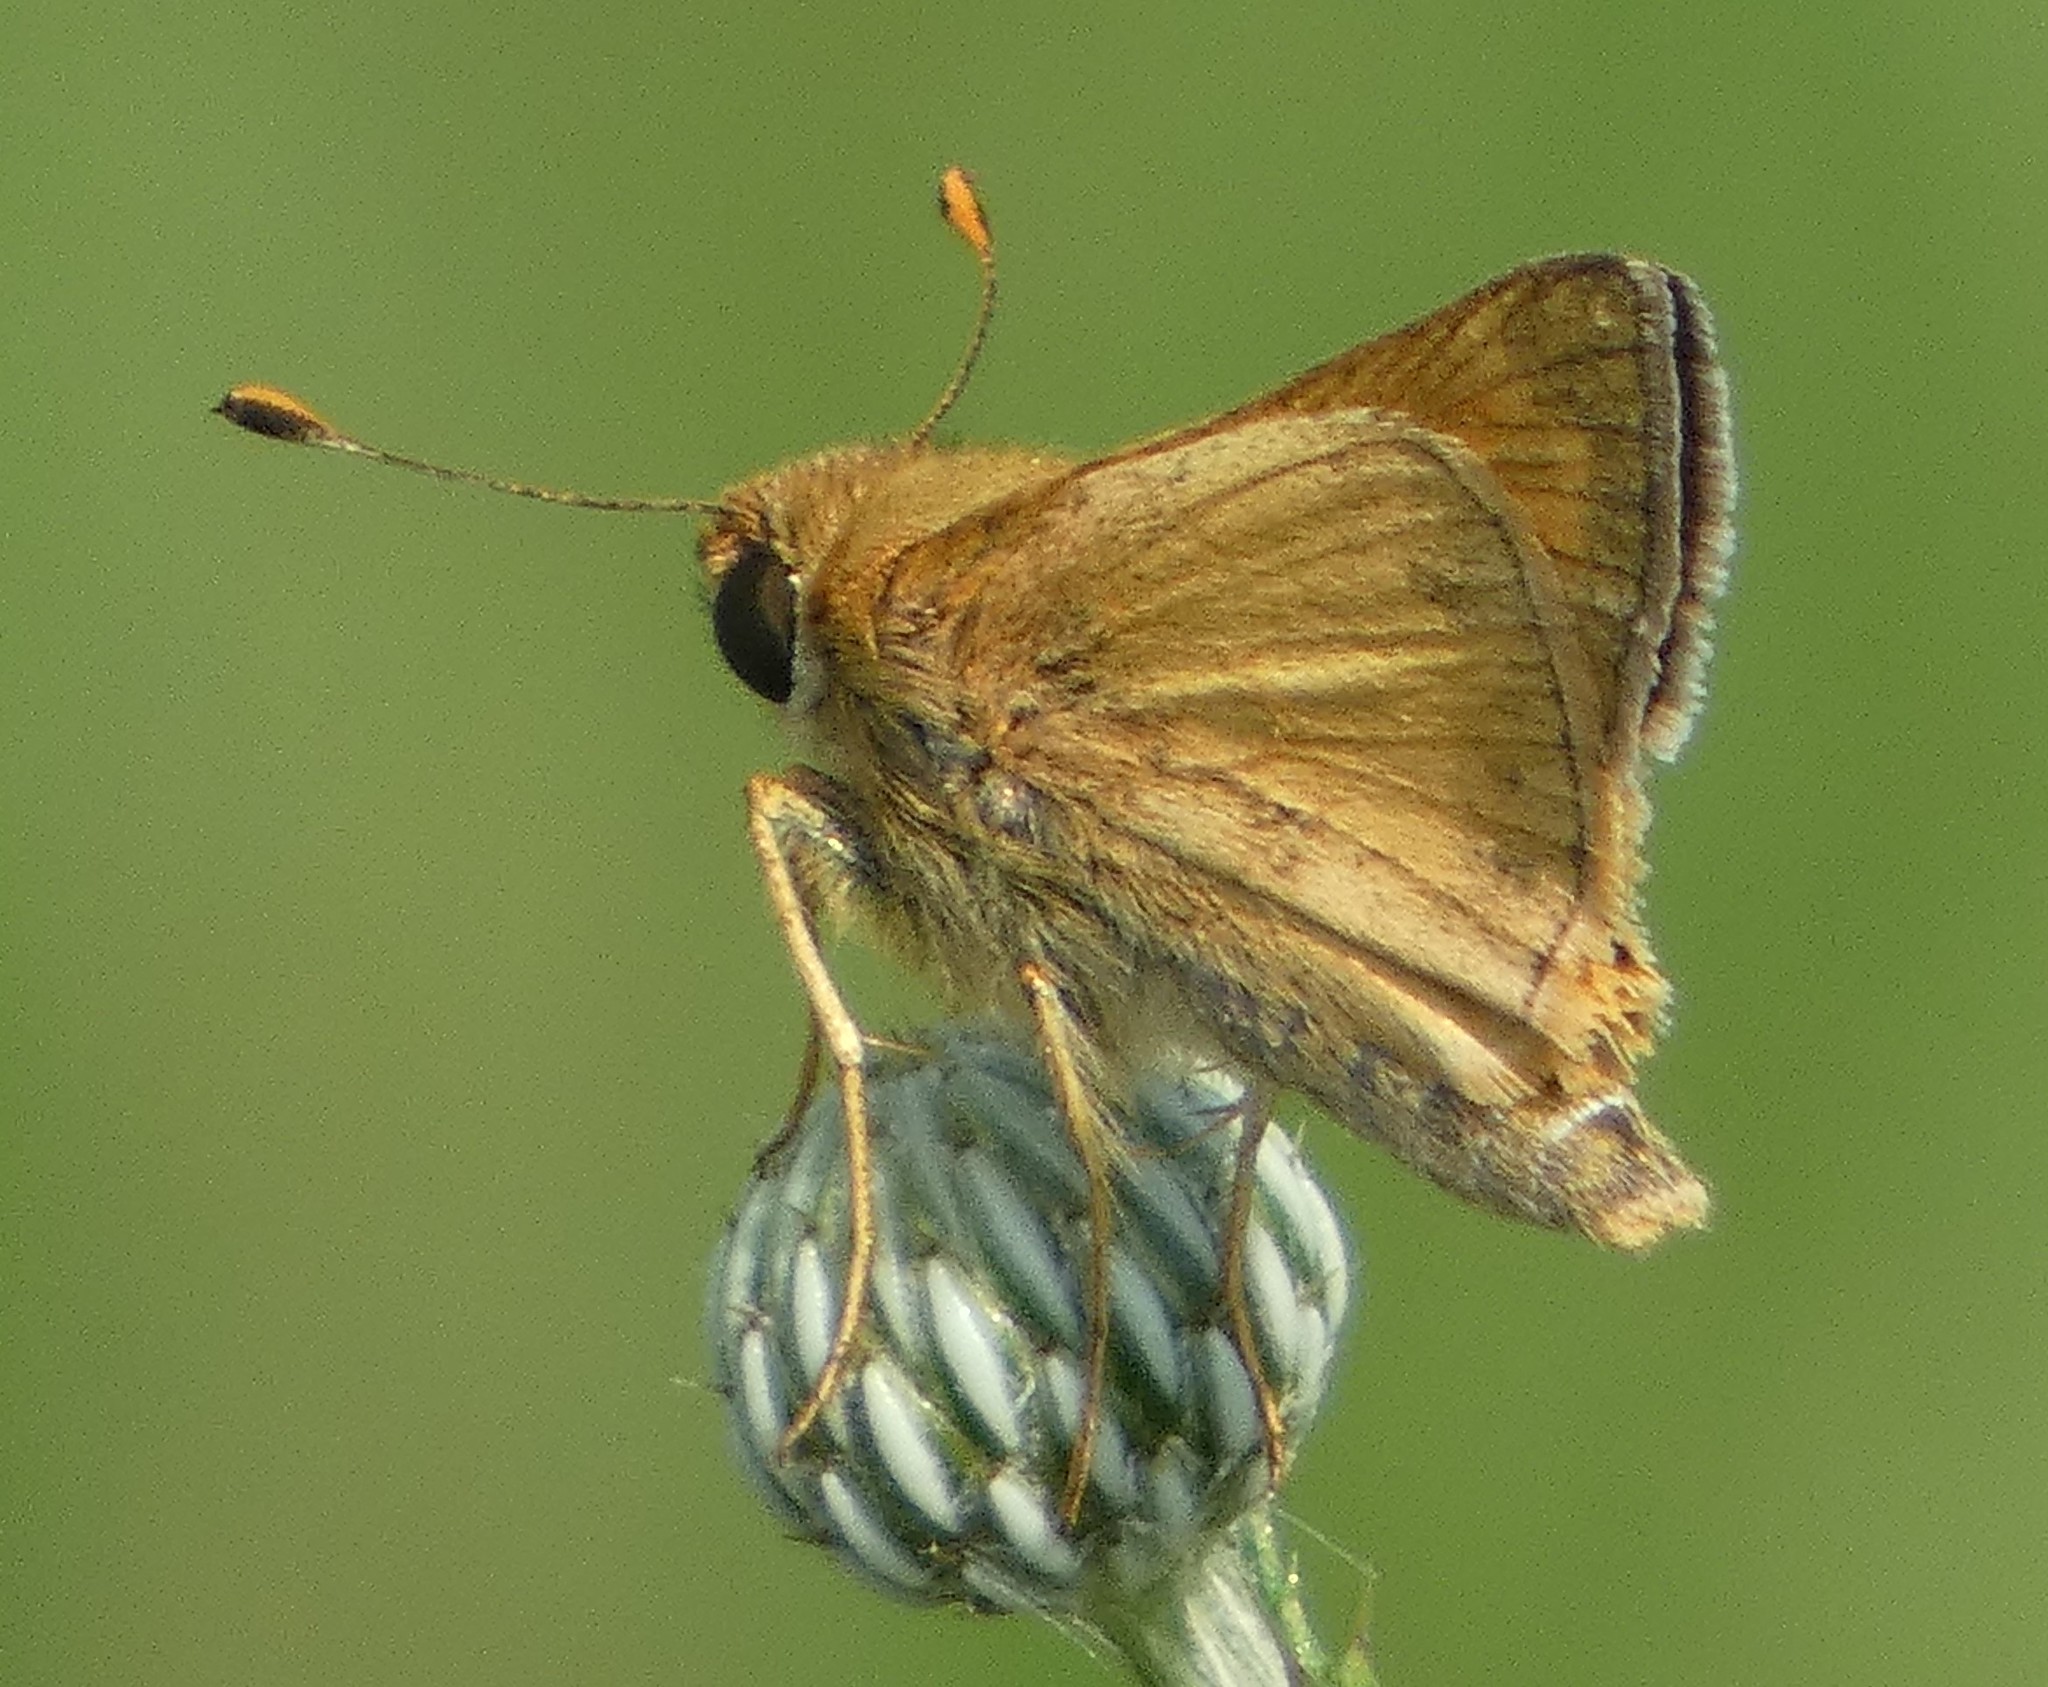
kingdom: Animalia
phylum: Arthropoda
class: Insecta
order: Lepidoptera
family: Hesperiidae
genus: Atalopedes
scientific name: Atalopedes
